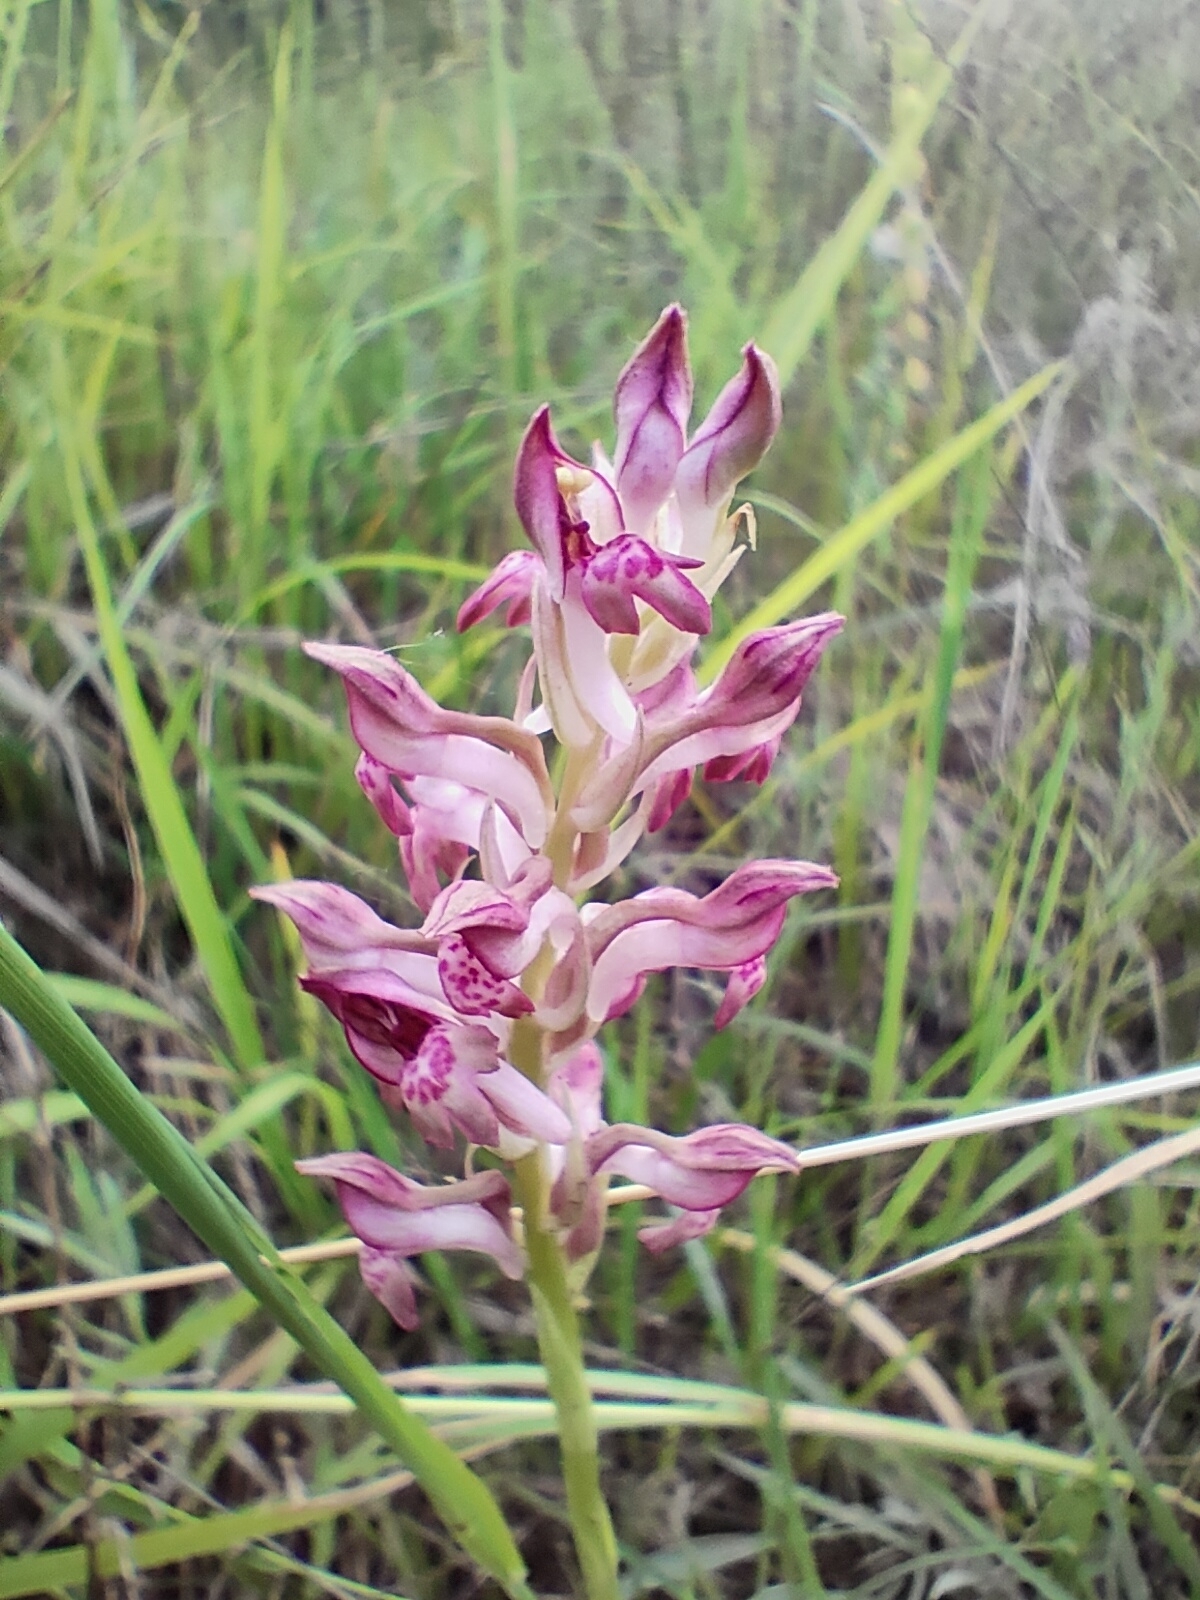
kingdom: Plantae
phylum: Tracheophyta
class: Liliopsida
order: Asparagales
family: Orchidaceae
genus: Anacamptis
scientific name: Anacamptis coriophora
